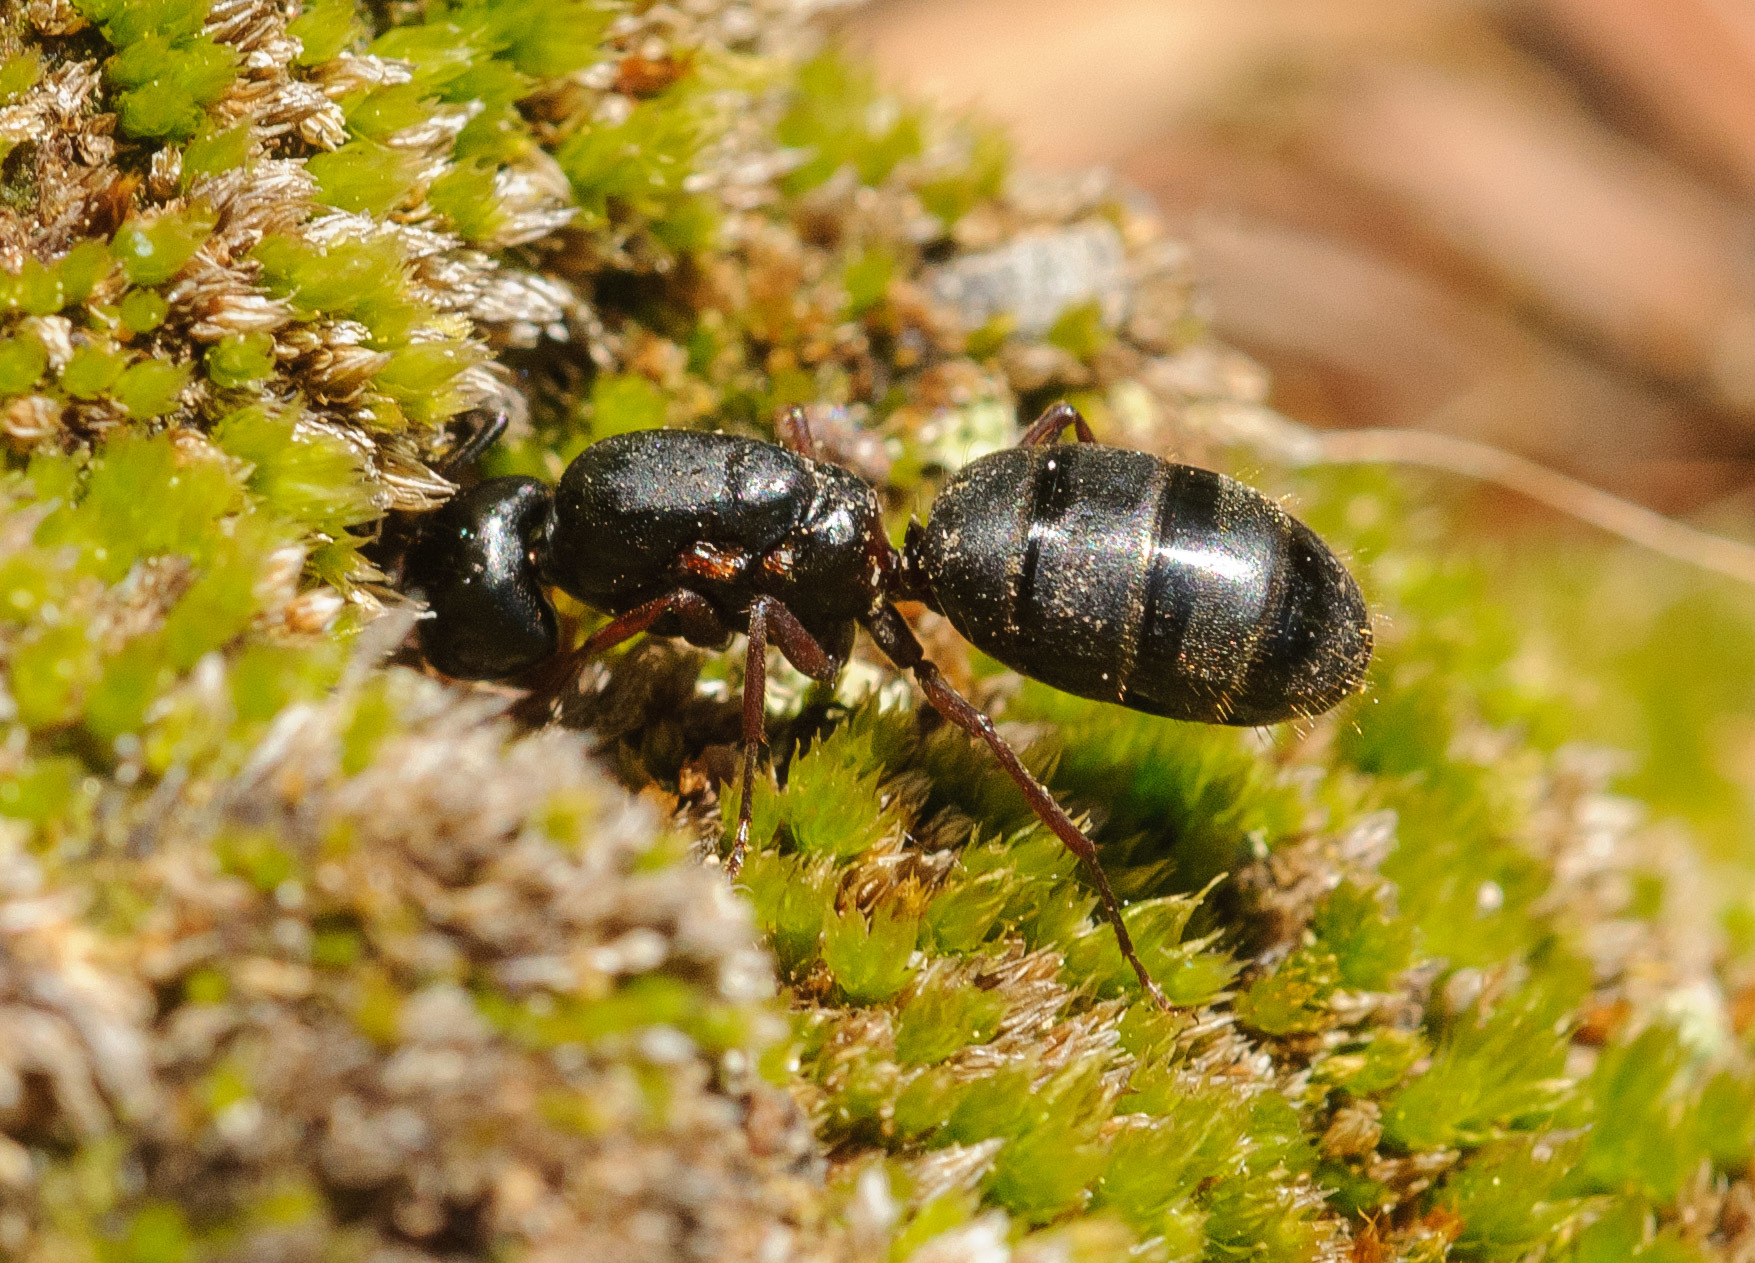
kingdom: Animalia
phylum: Arthropoda
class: Insecta
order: Hymenoptera
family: Formicidae
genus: Camponotus
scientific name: Camponotus modoc
